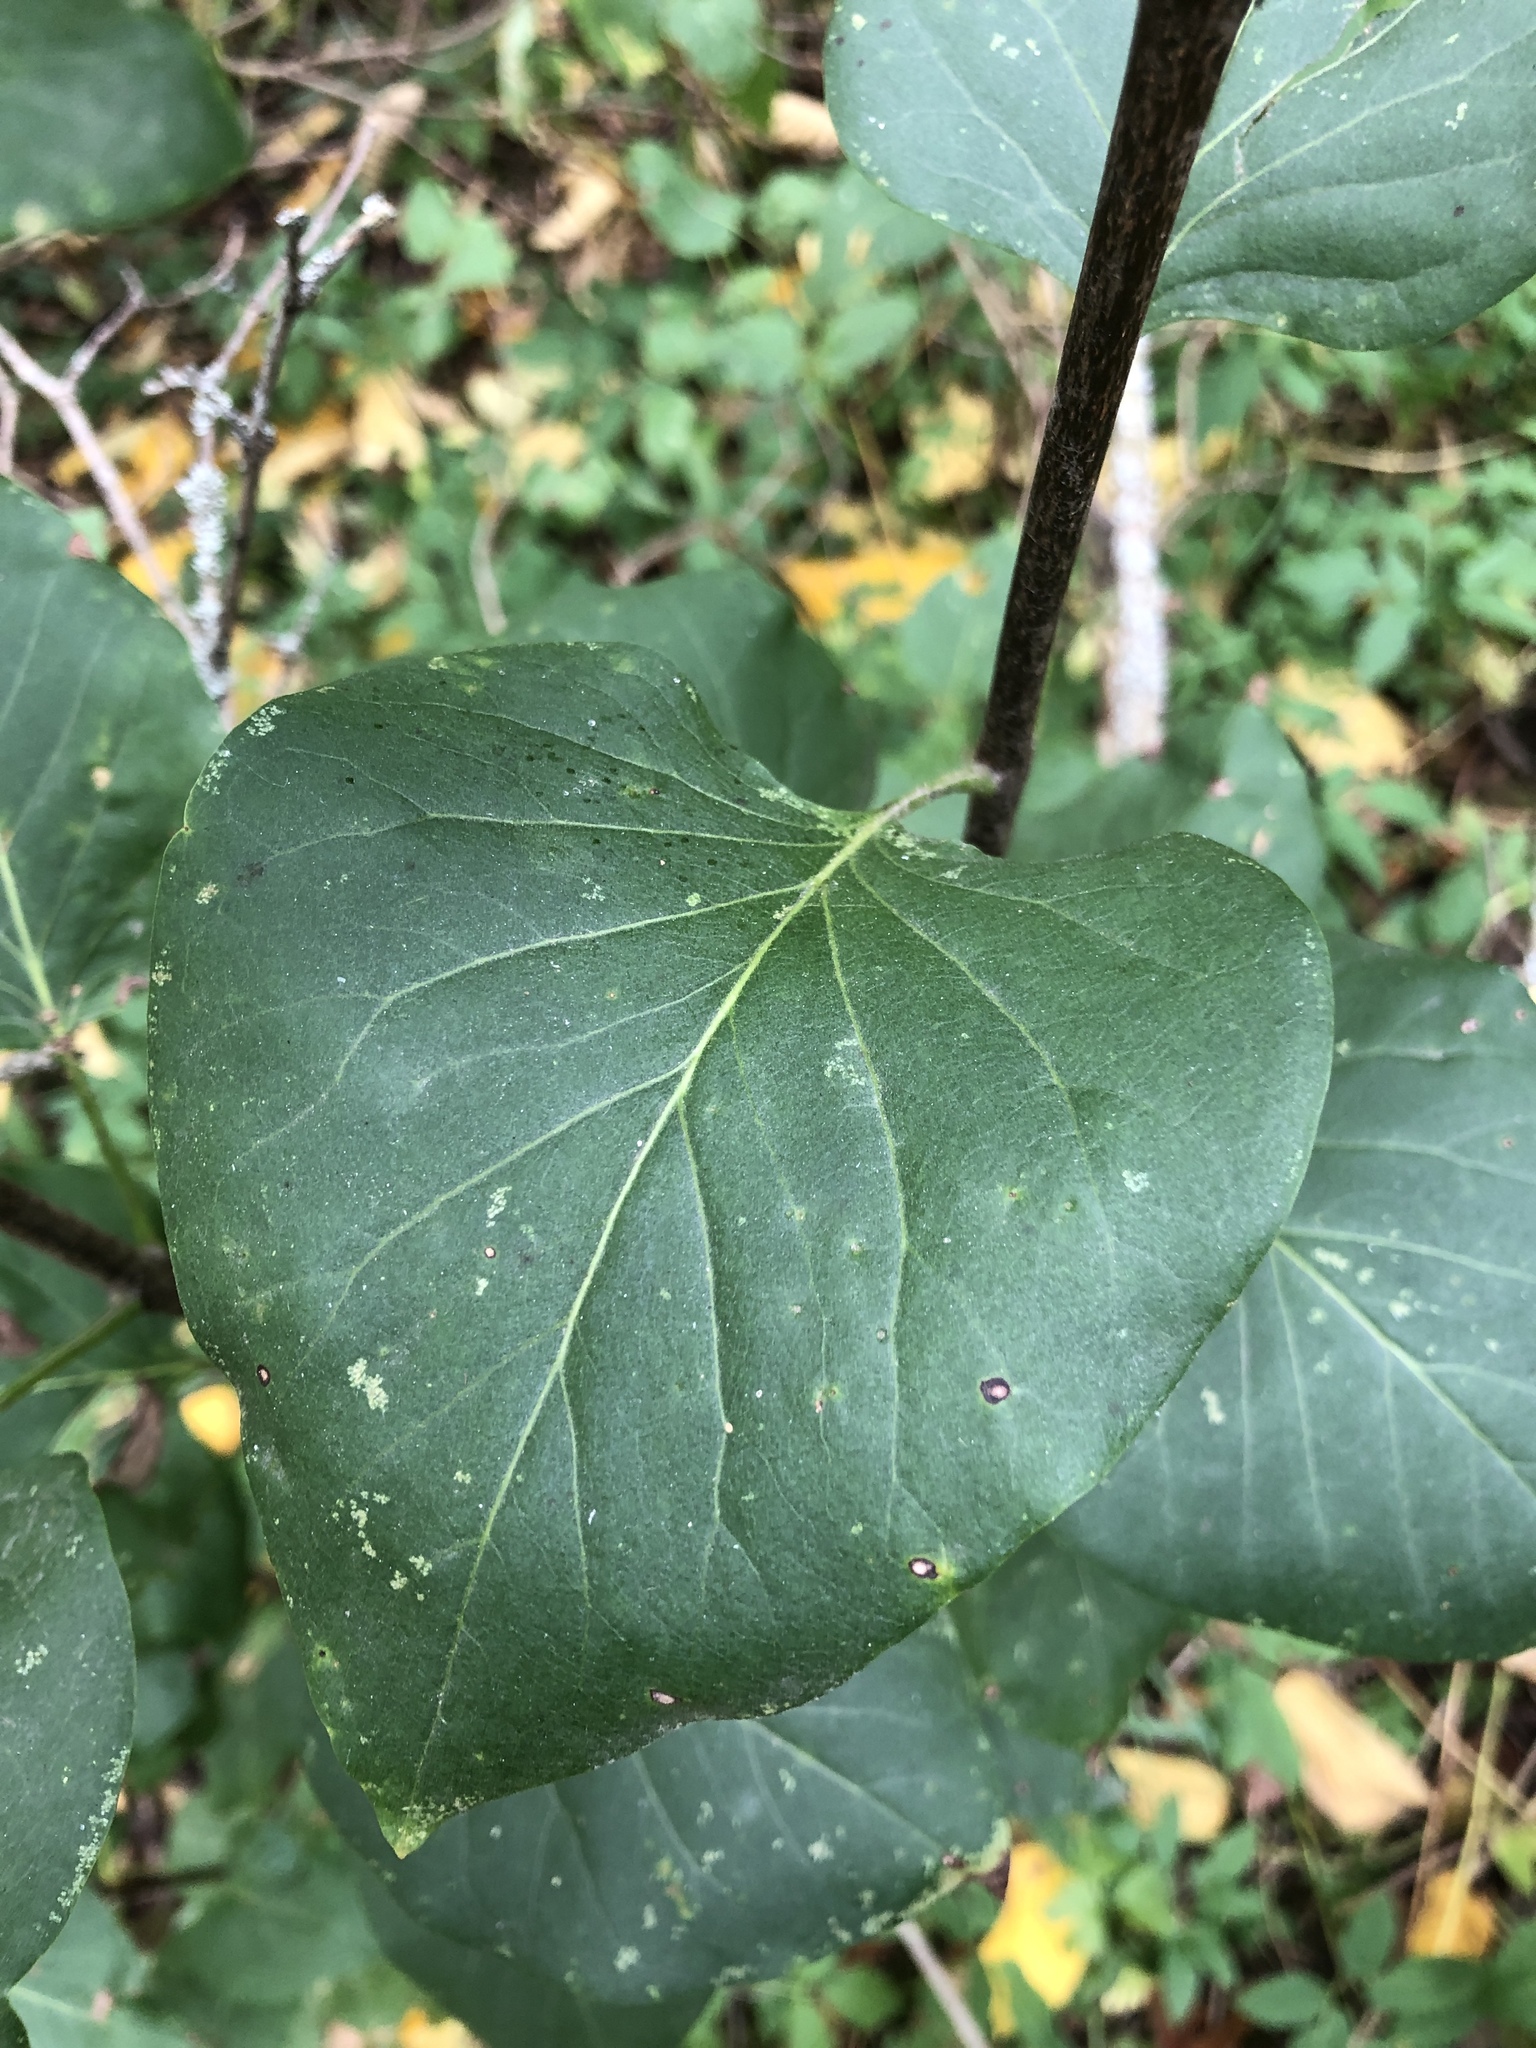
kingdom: Plantae
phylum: Tracheophyta
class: Magnoliopsida
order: Lamiales
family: Oleaceae
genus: Syringa
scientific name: Syringa vulgaris
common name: Common lilac
